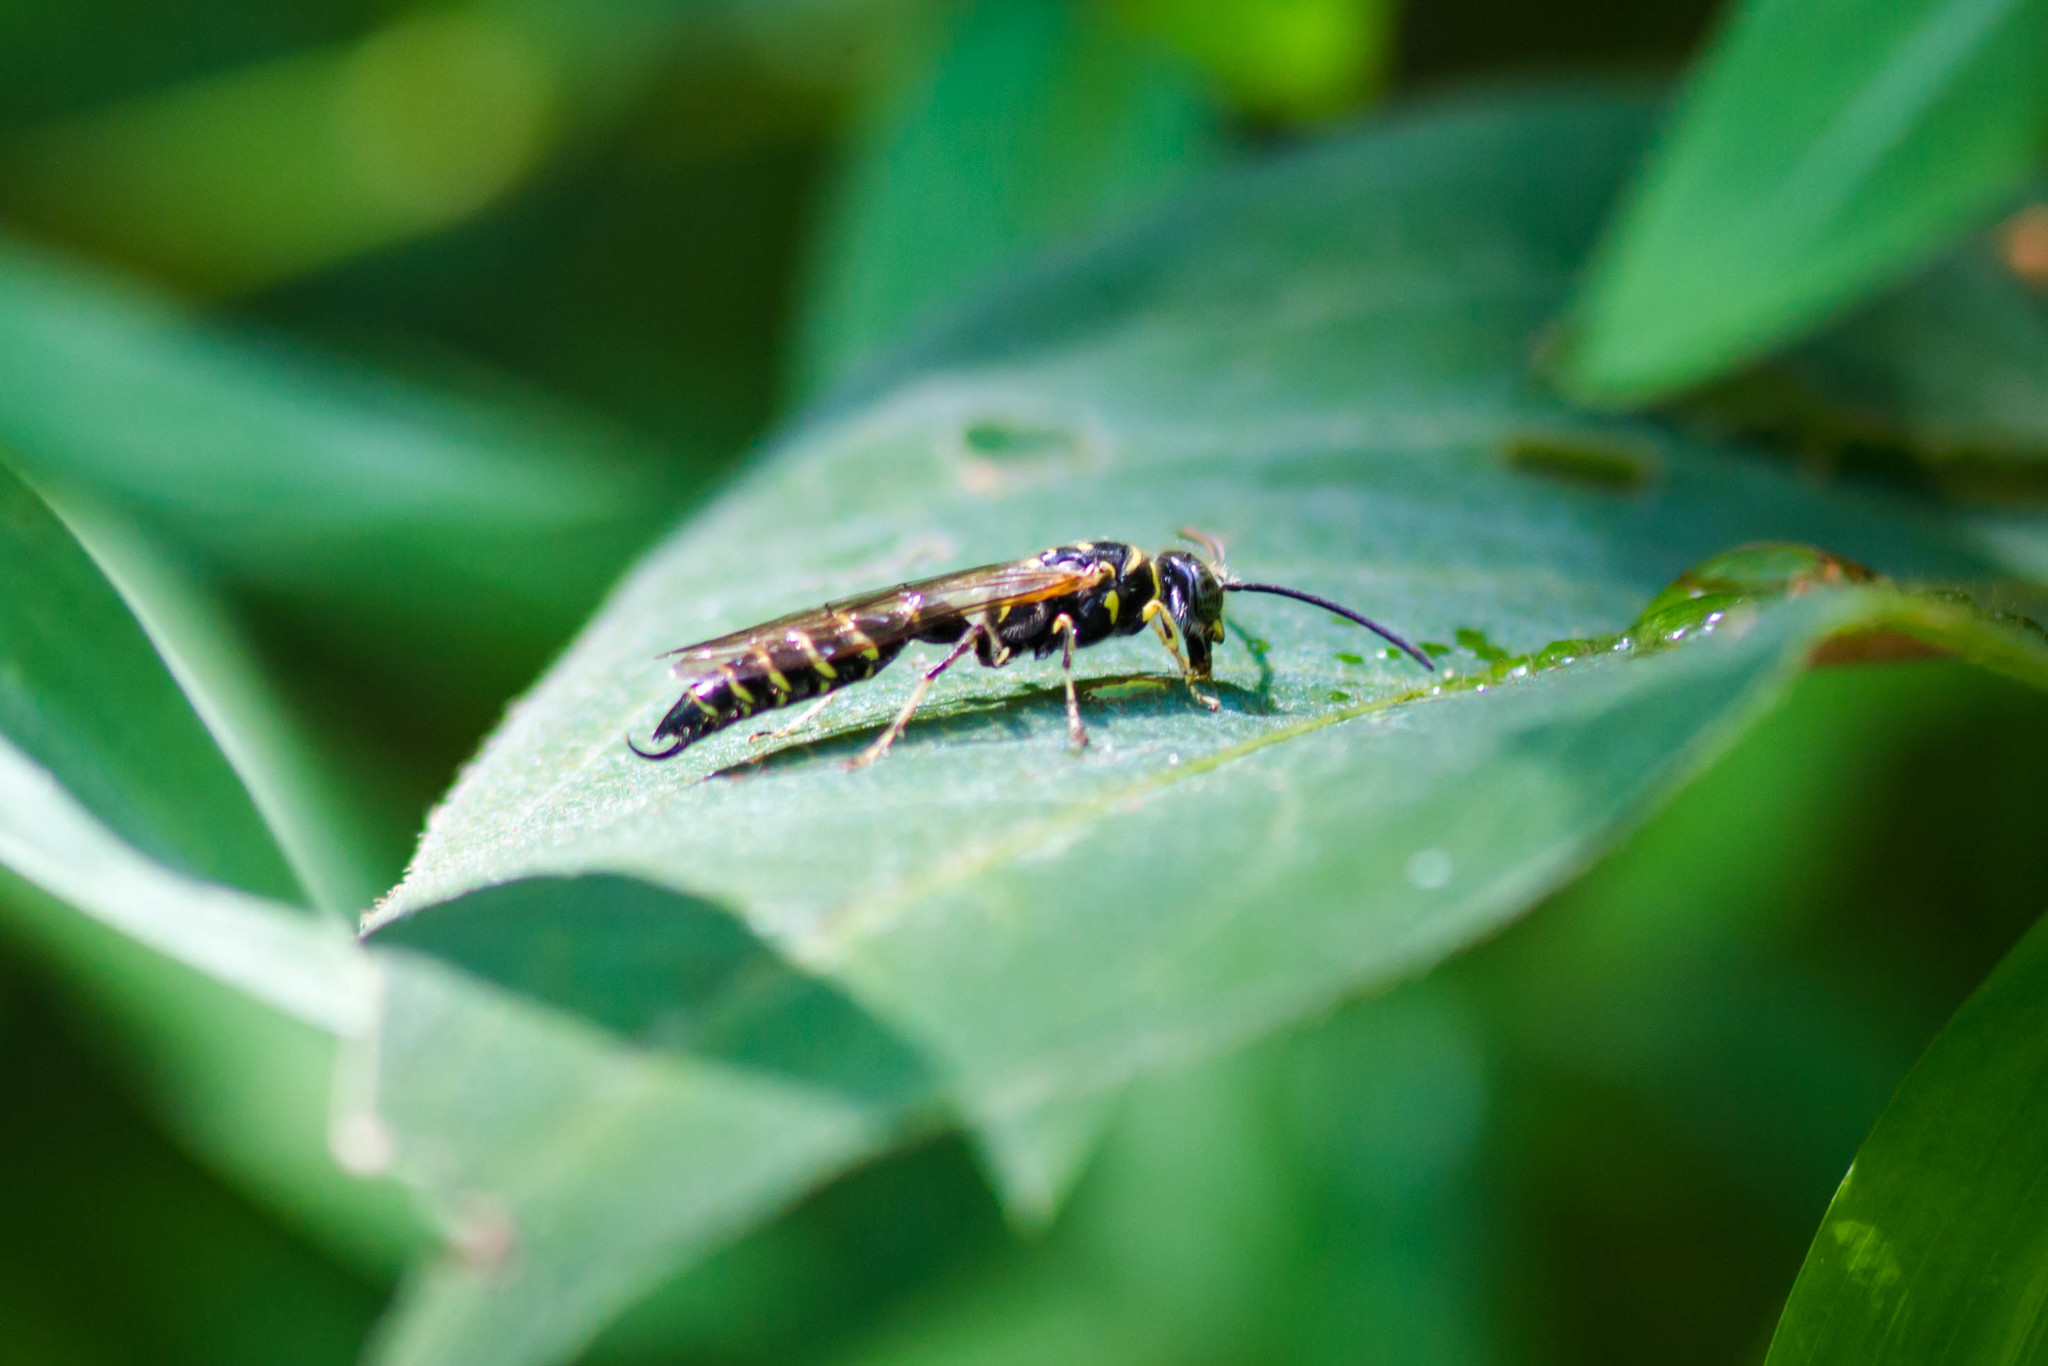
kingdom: Animalia
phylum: Arthropoda
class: Insecta
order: Hymenoptera
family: Tiphiidae
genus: Myzinum
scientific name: Myzinum
